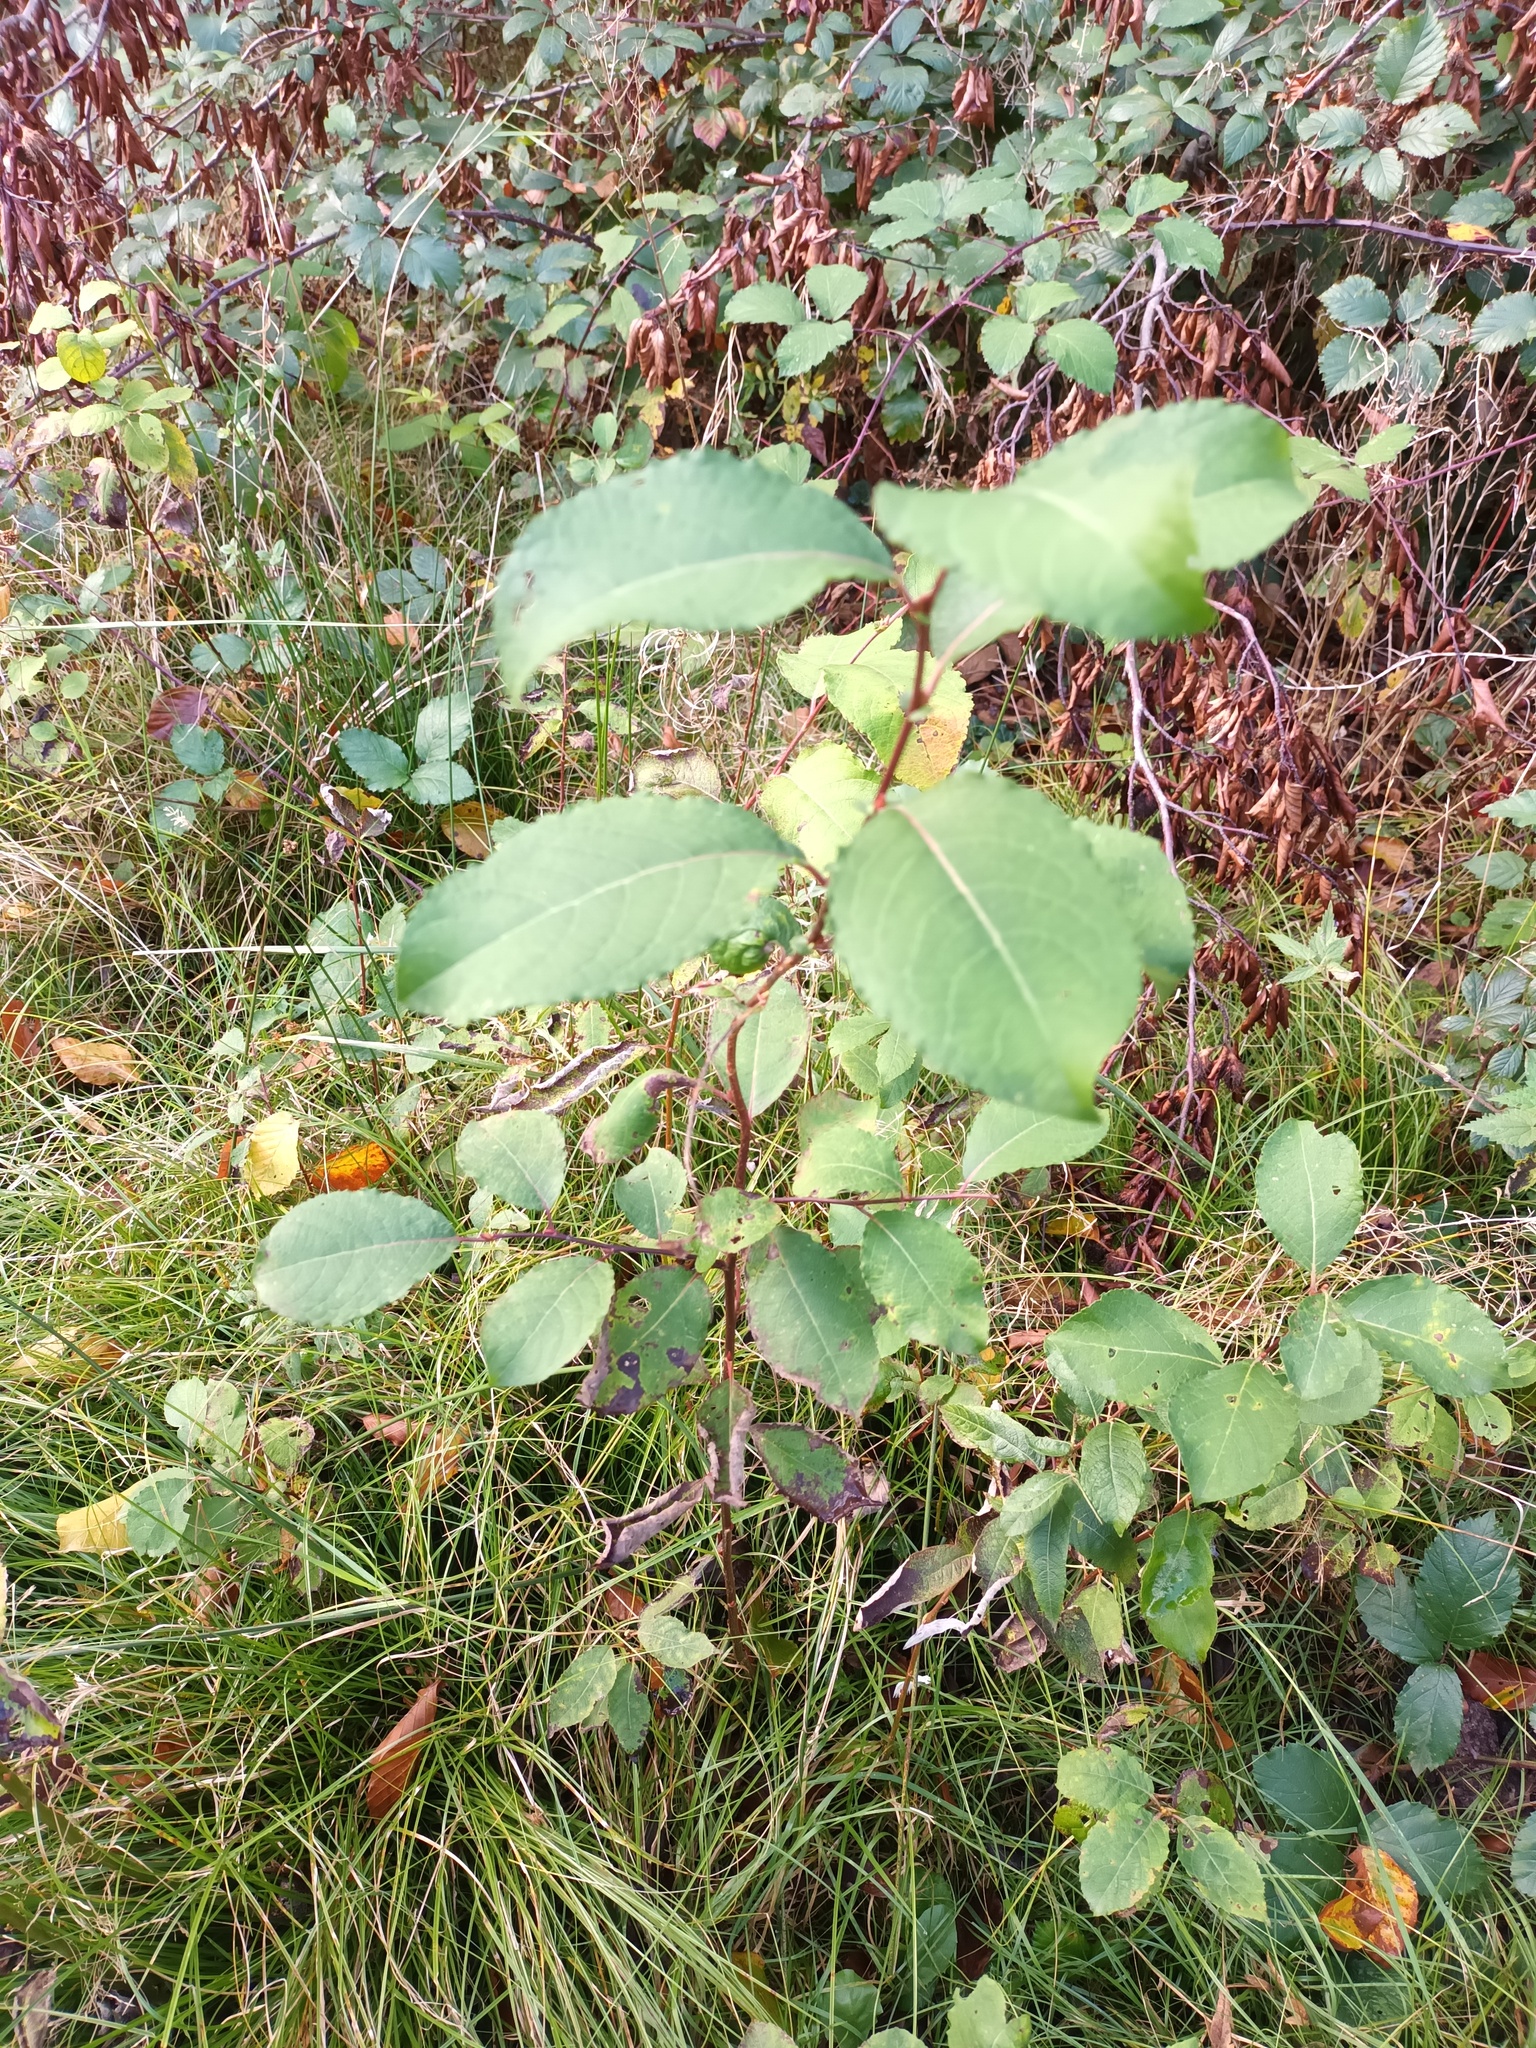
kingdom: Plantae
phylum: Tracheophyta
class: Magnoliopsida
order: Malpighiales
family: Salicaceae
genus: Salix
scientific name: Salix caprea
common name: Goat willow
